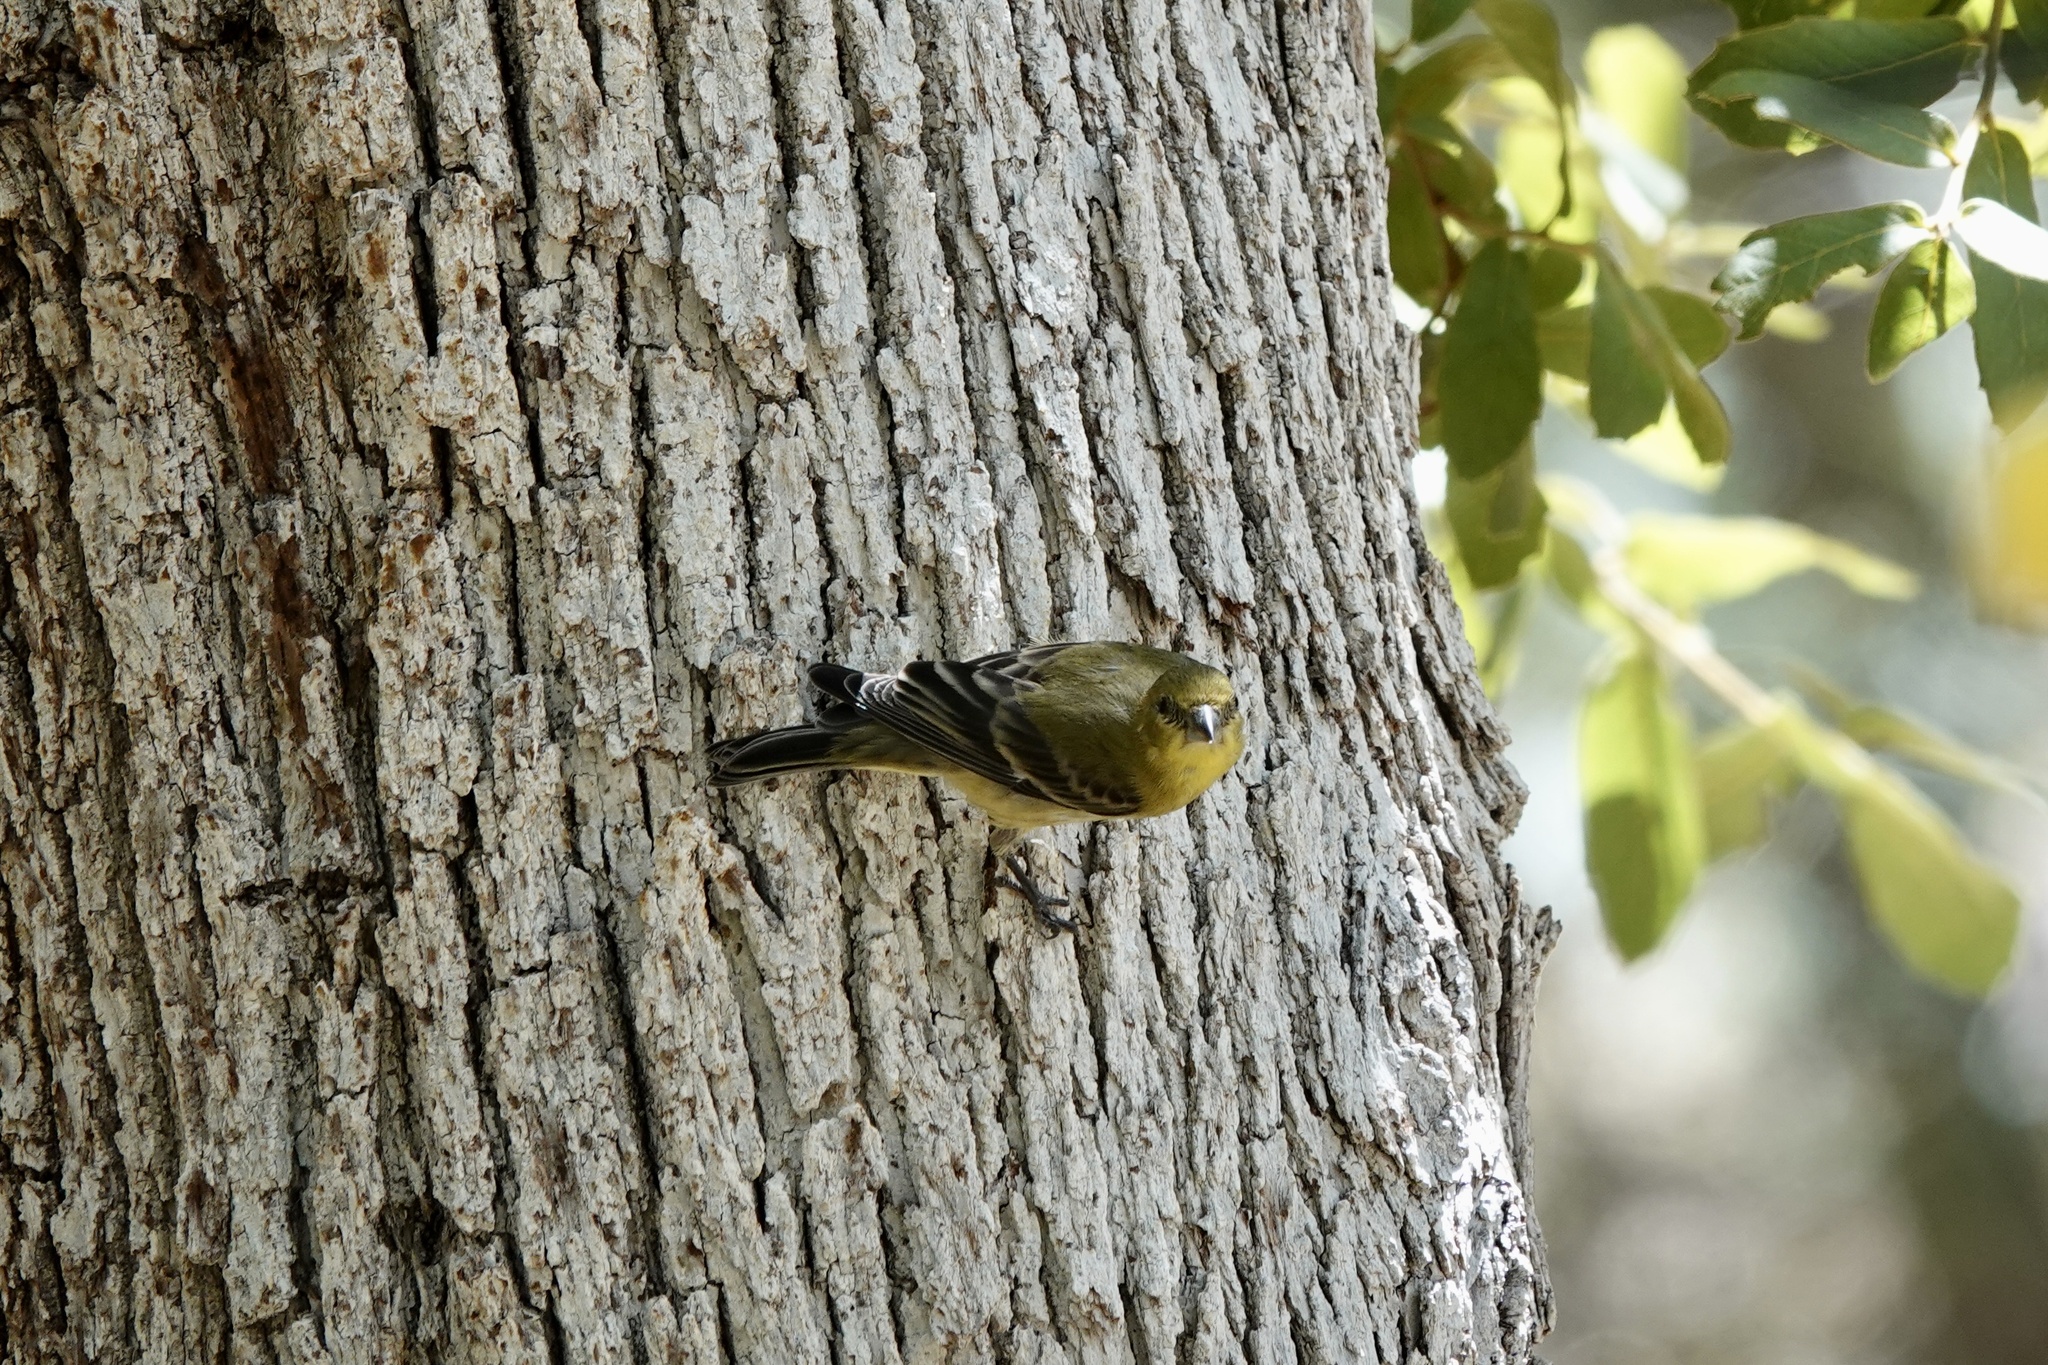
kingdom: Animalia
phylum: Chordata
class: Aves
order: Passeriformes
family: Fringillidae
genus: Spinus
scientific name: Spinus psaltria
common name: Lesser goldfinch
